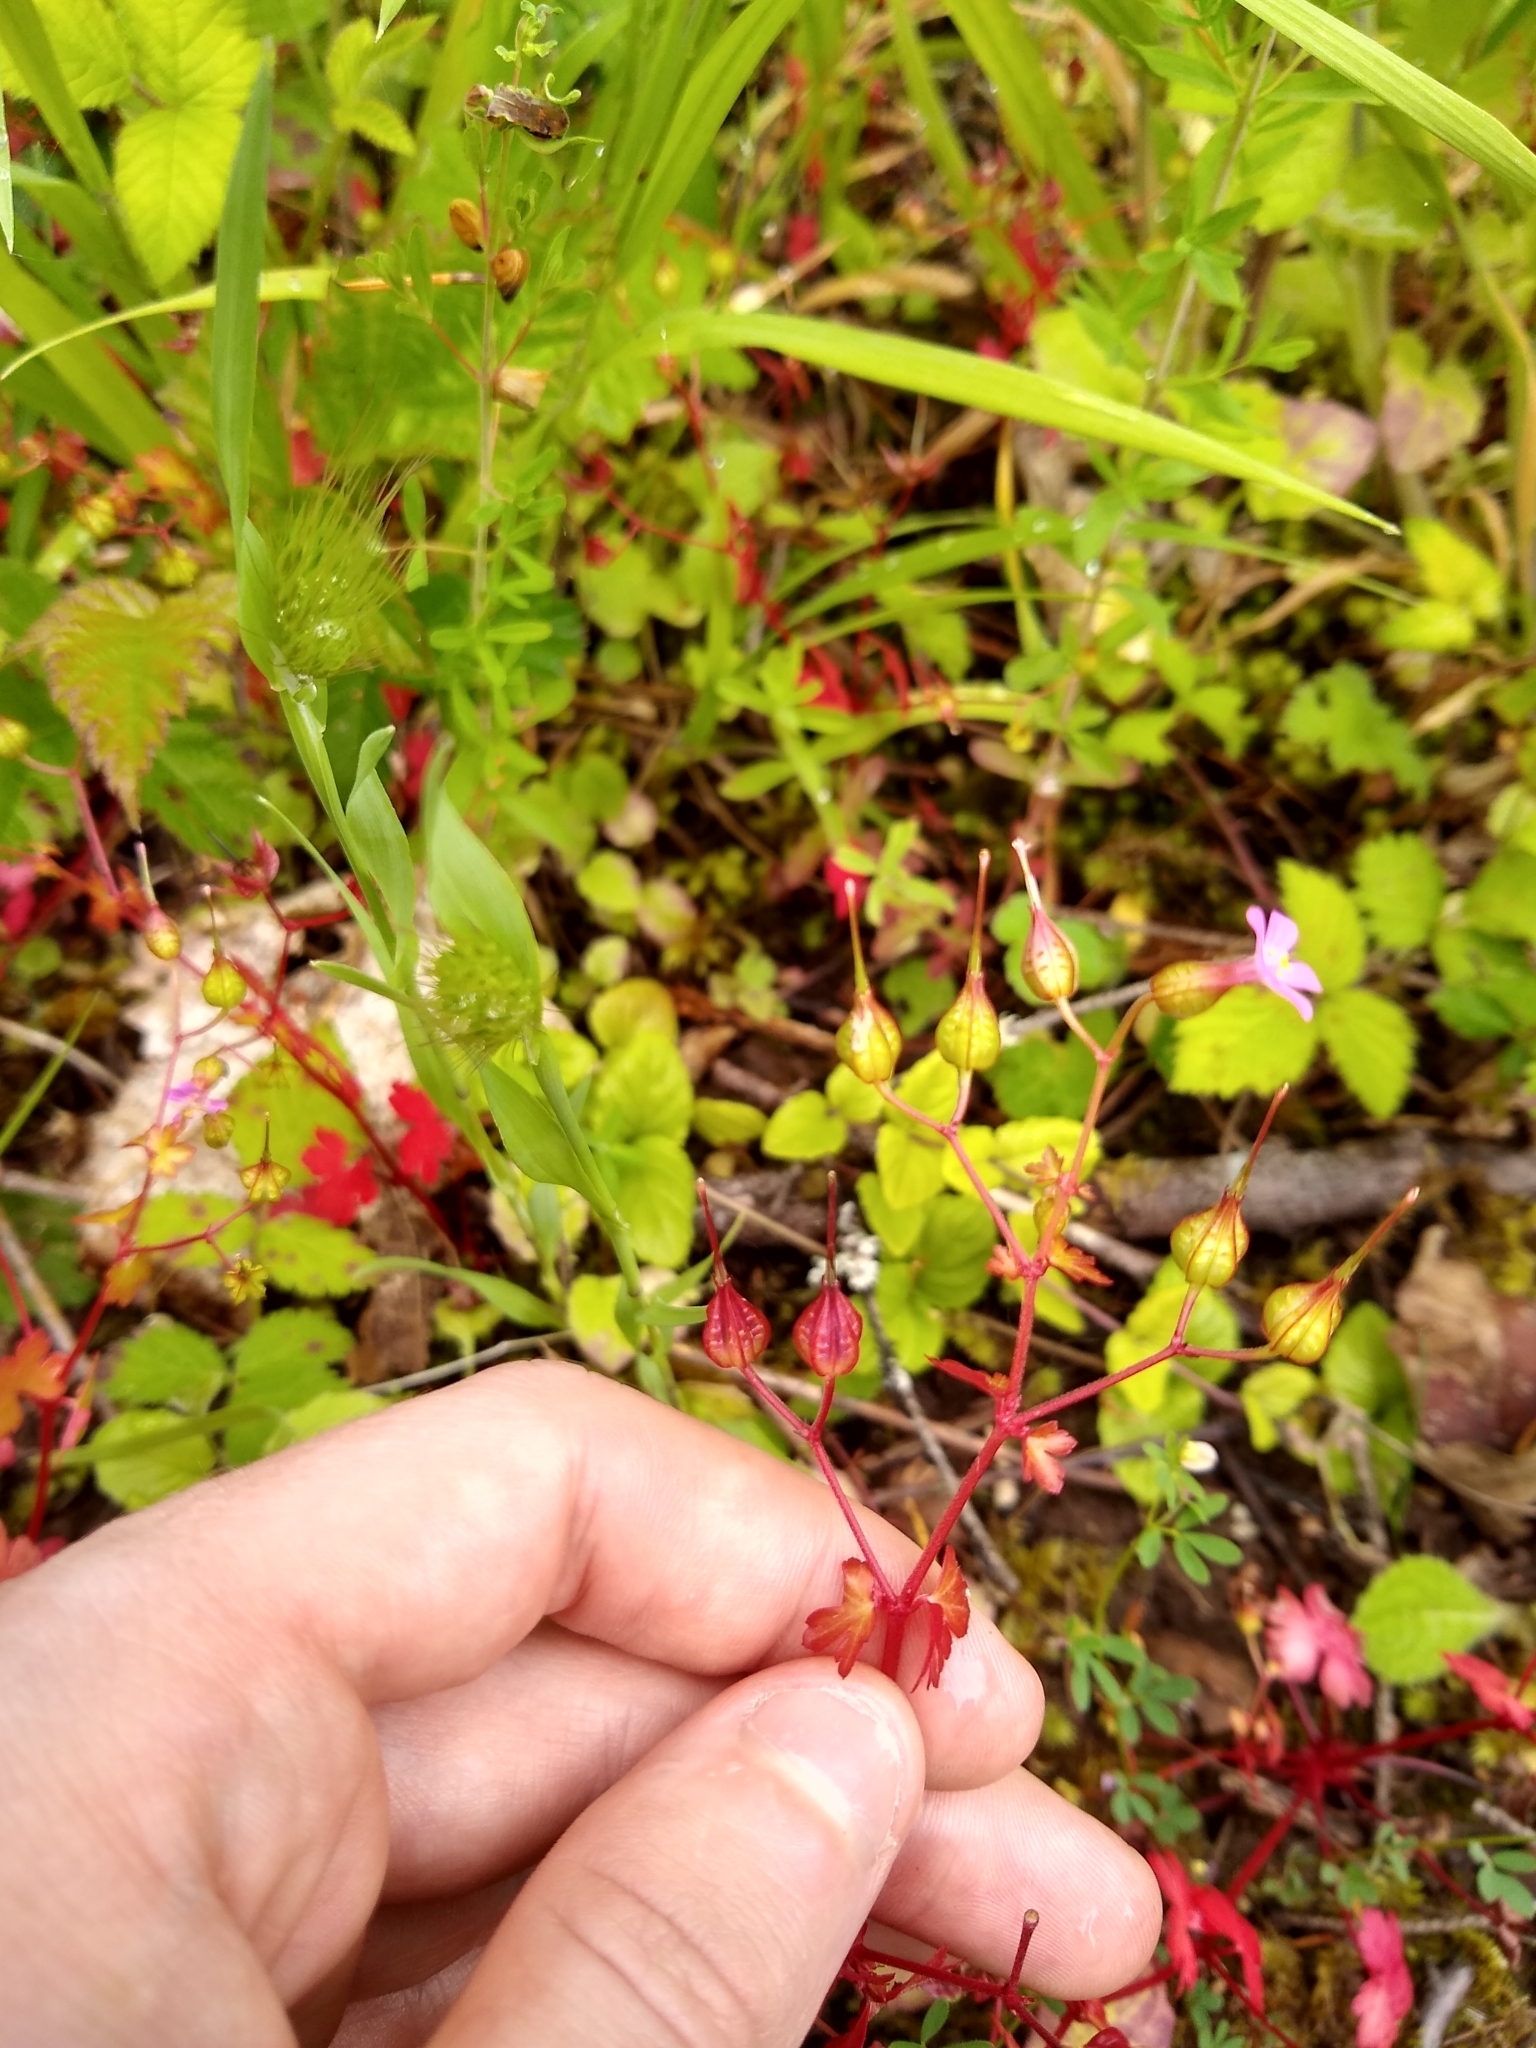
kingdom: Plantae
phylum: Tracheophyta
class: Magnoliopsida
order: Geraniales
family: Geraniaceae
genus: Geranium
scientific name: Geranium lucidum
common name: Shining crane's-bill
